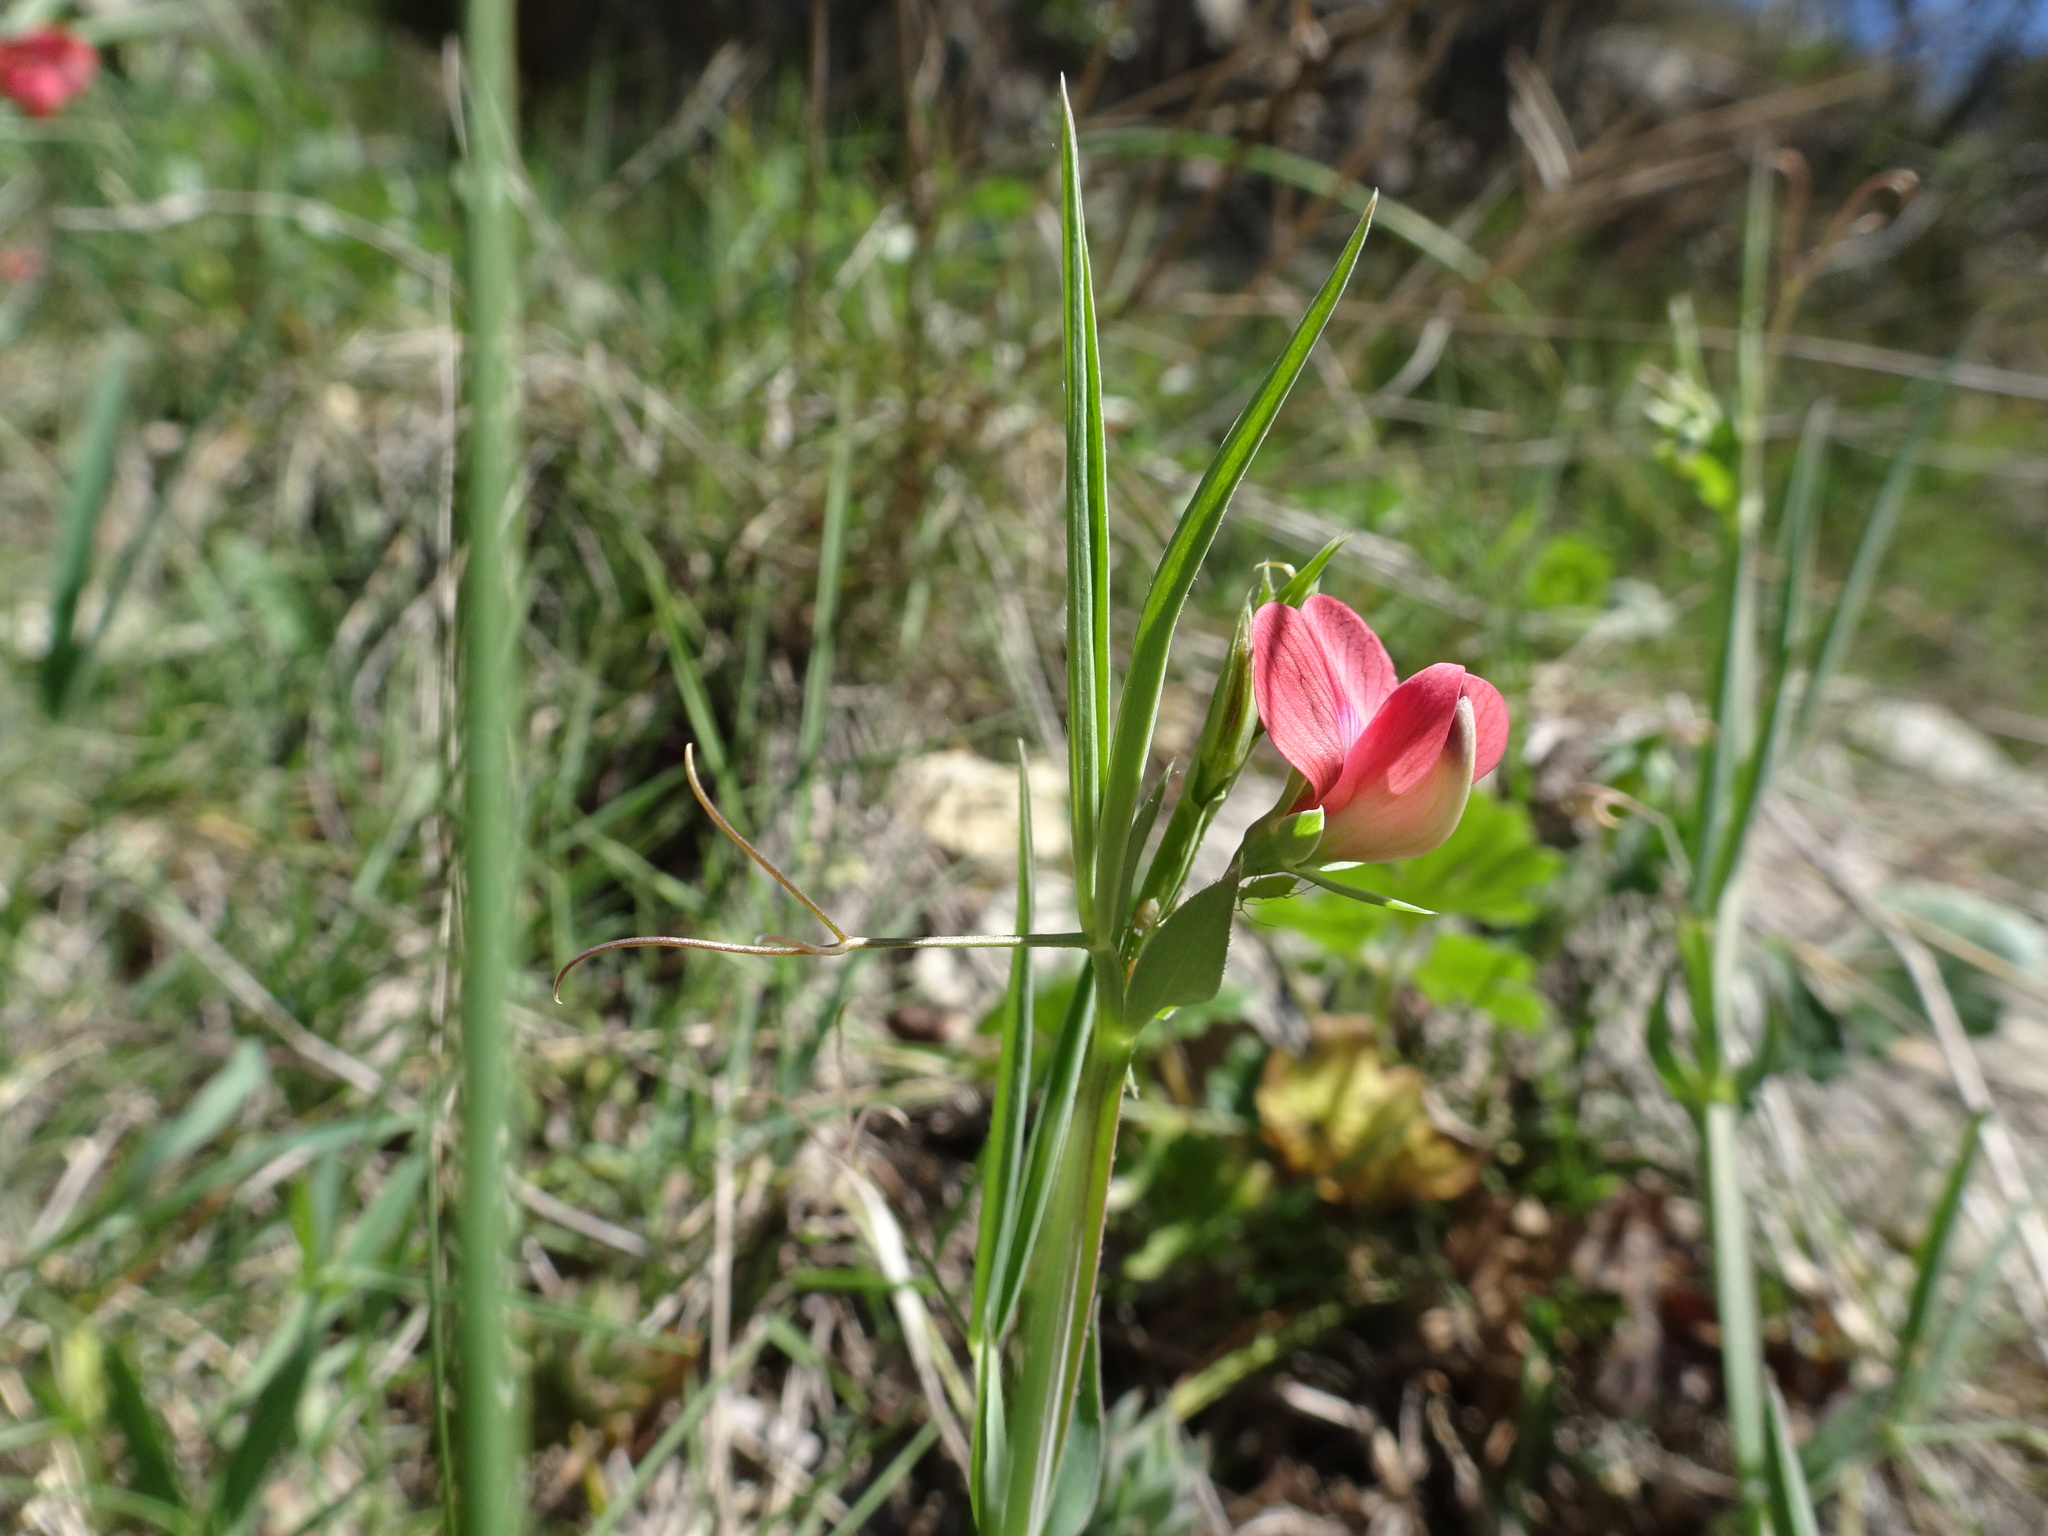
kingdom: Plantae
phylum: Tracheophyta
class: Magnoliopsida
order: Fabales
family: Fabaceae
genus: Lathyrus
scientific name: Lathyrus cicera
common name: Red vetchling
